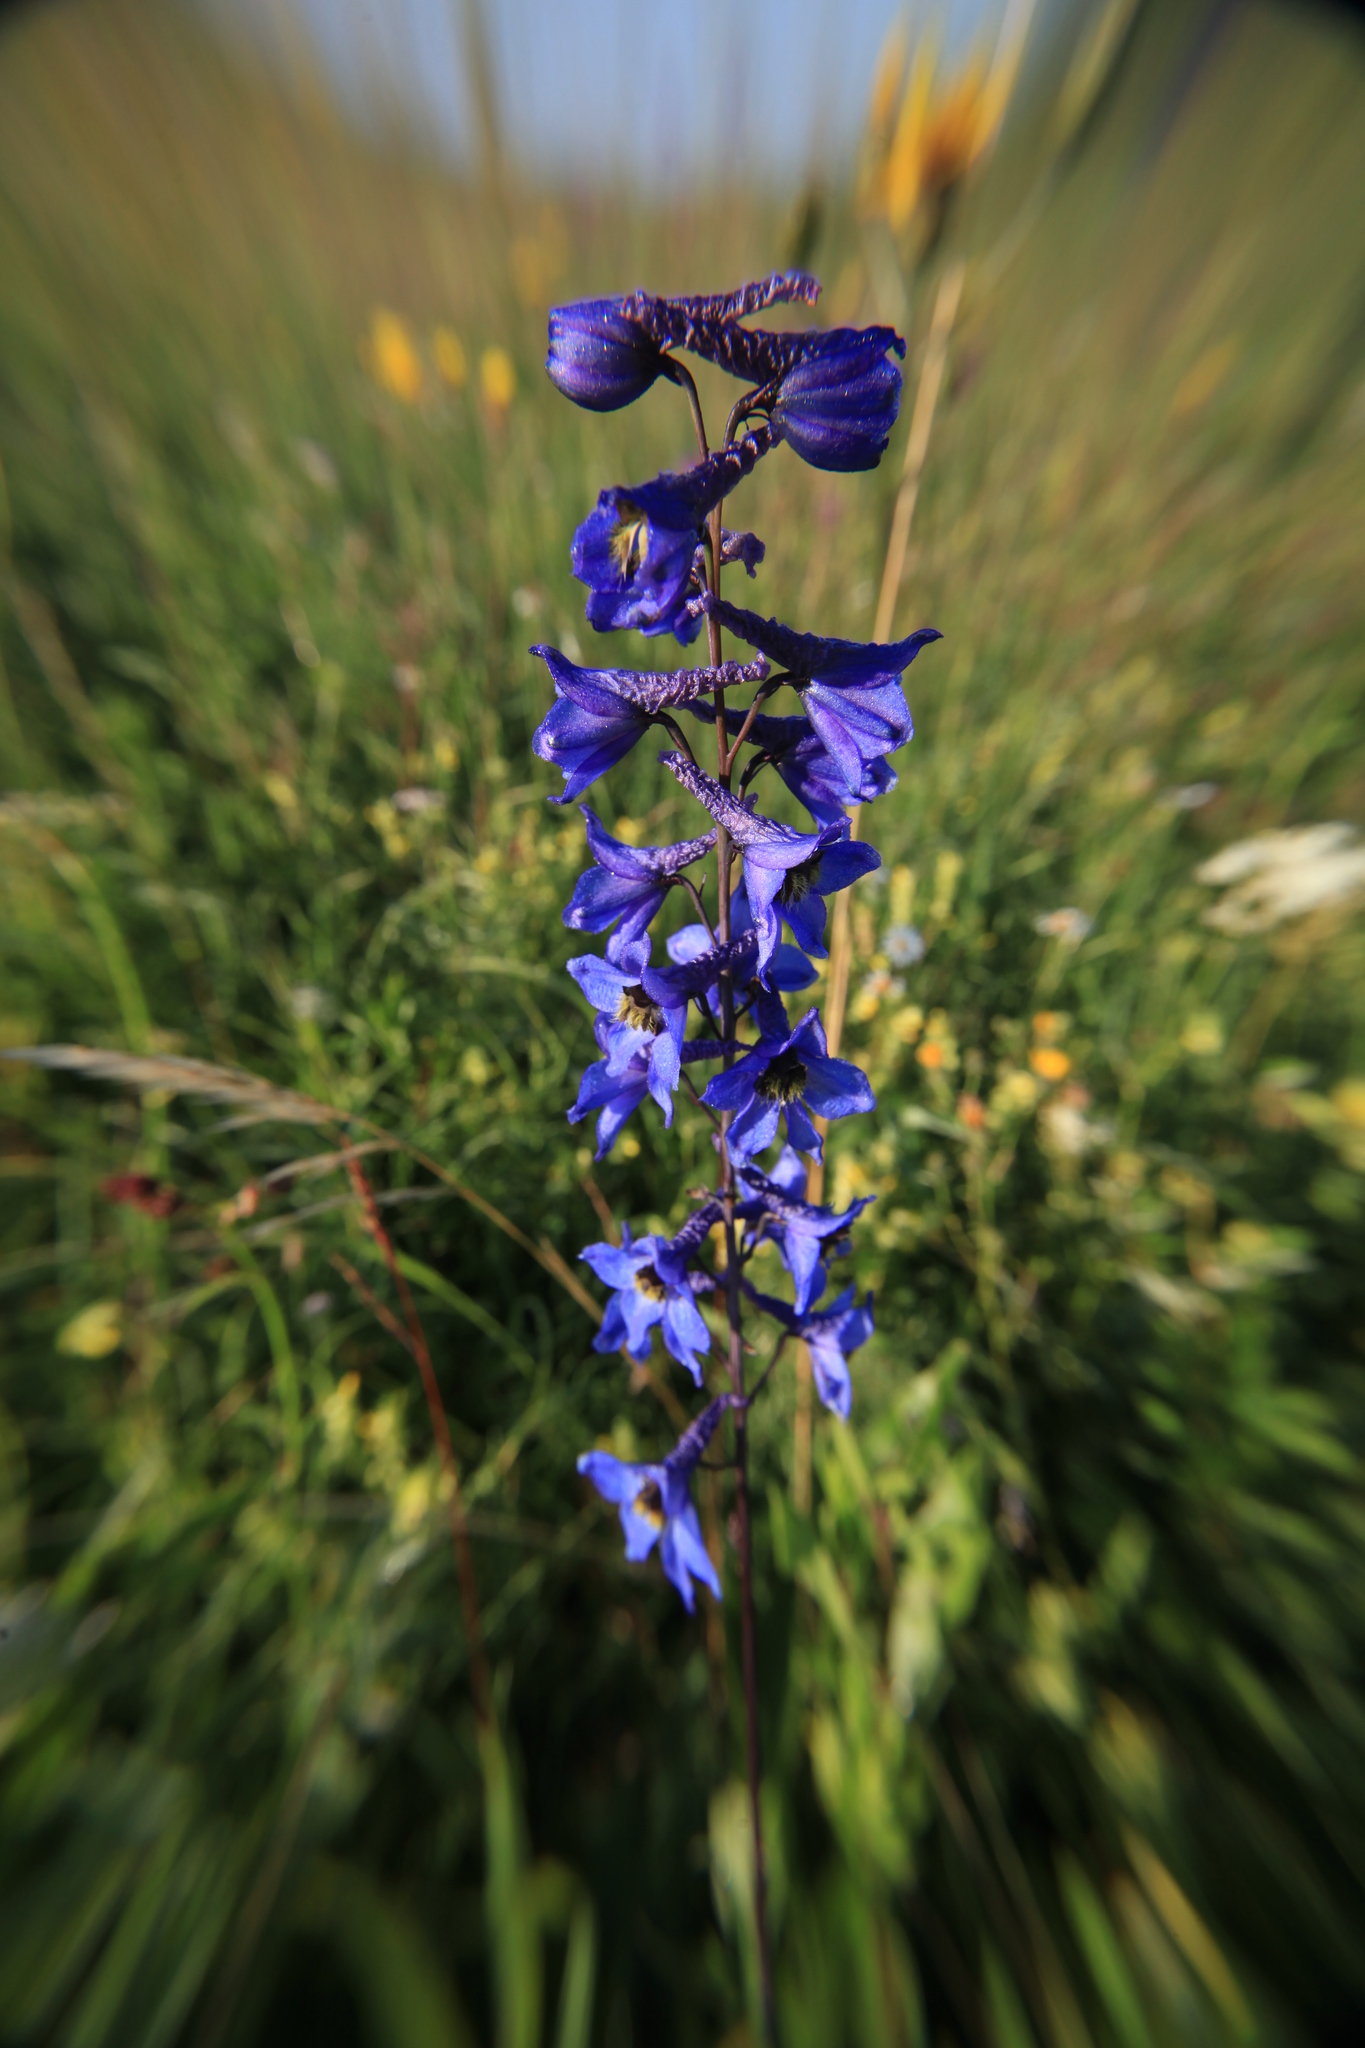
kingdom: Plantae
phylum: Tracheophyta
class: Magnoliopsida
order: Ranunculales
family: Ranunculaceae
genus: Delphinium
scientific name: Delphinium elatum
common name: Candle larkspur
